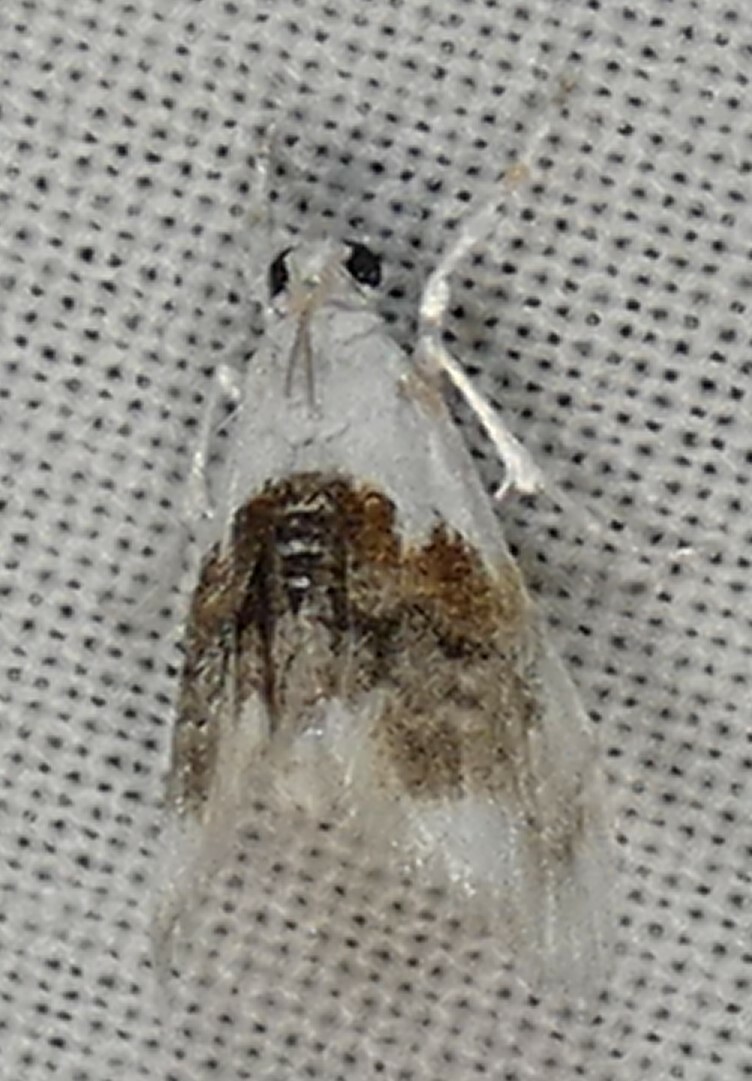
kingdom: Animalia
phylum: Arthropoda
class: Insecta
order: Lepidoptera
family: Crambidae
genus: Lipocosma
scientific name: Lipocosma septa
